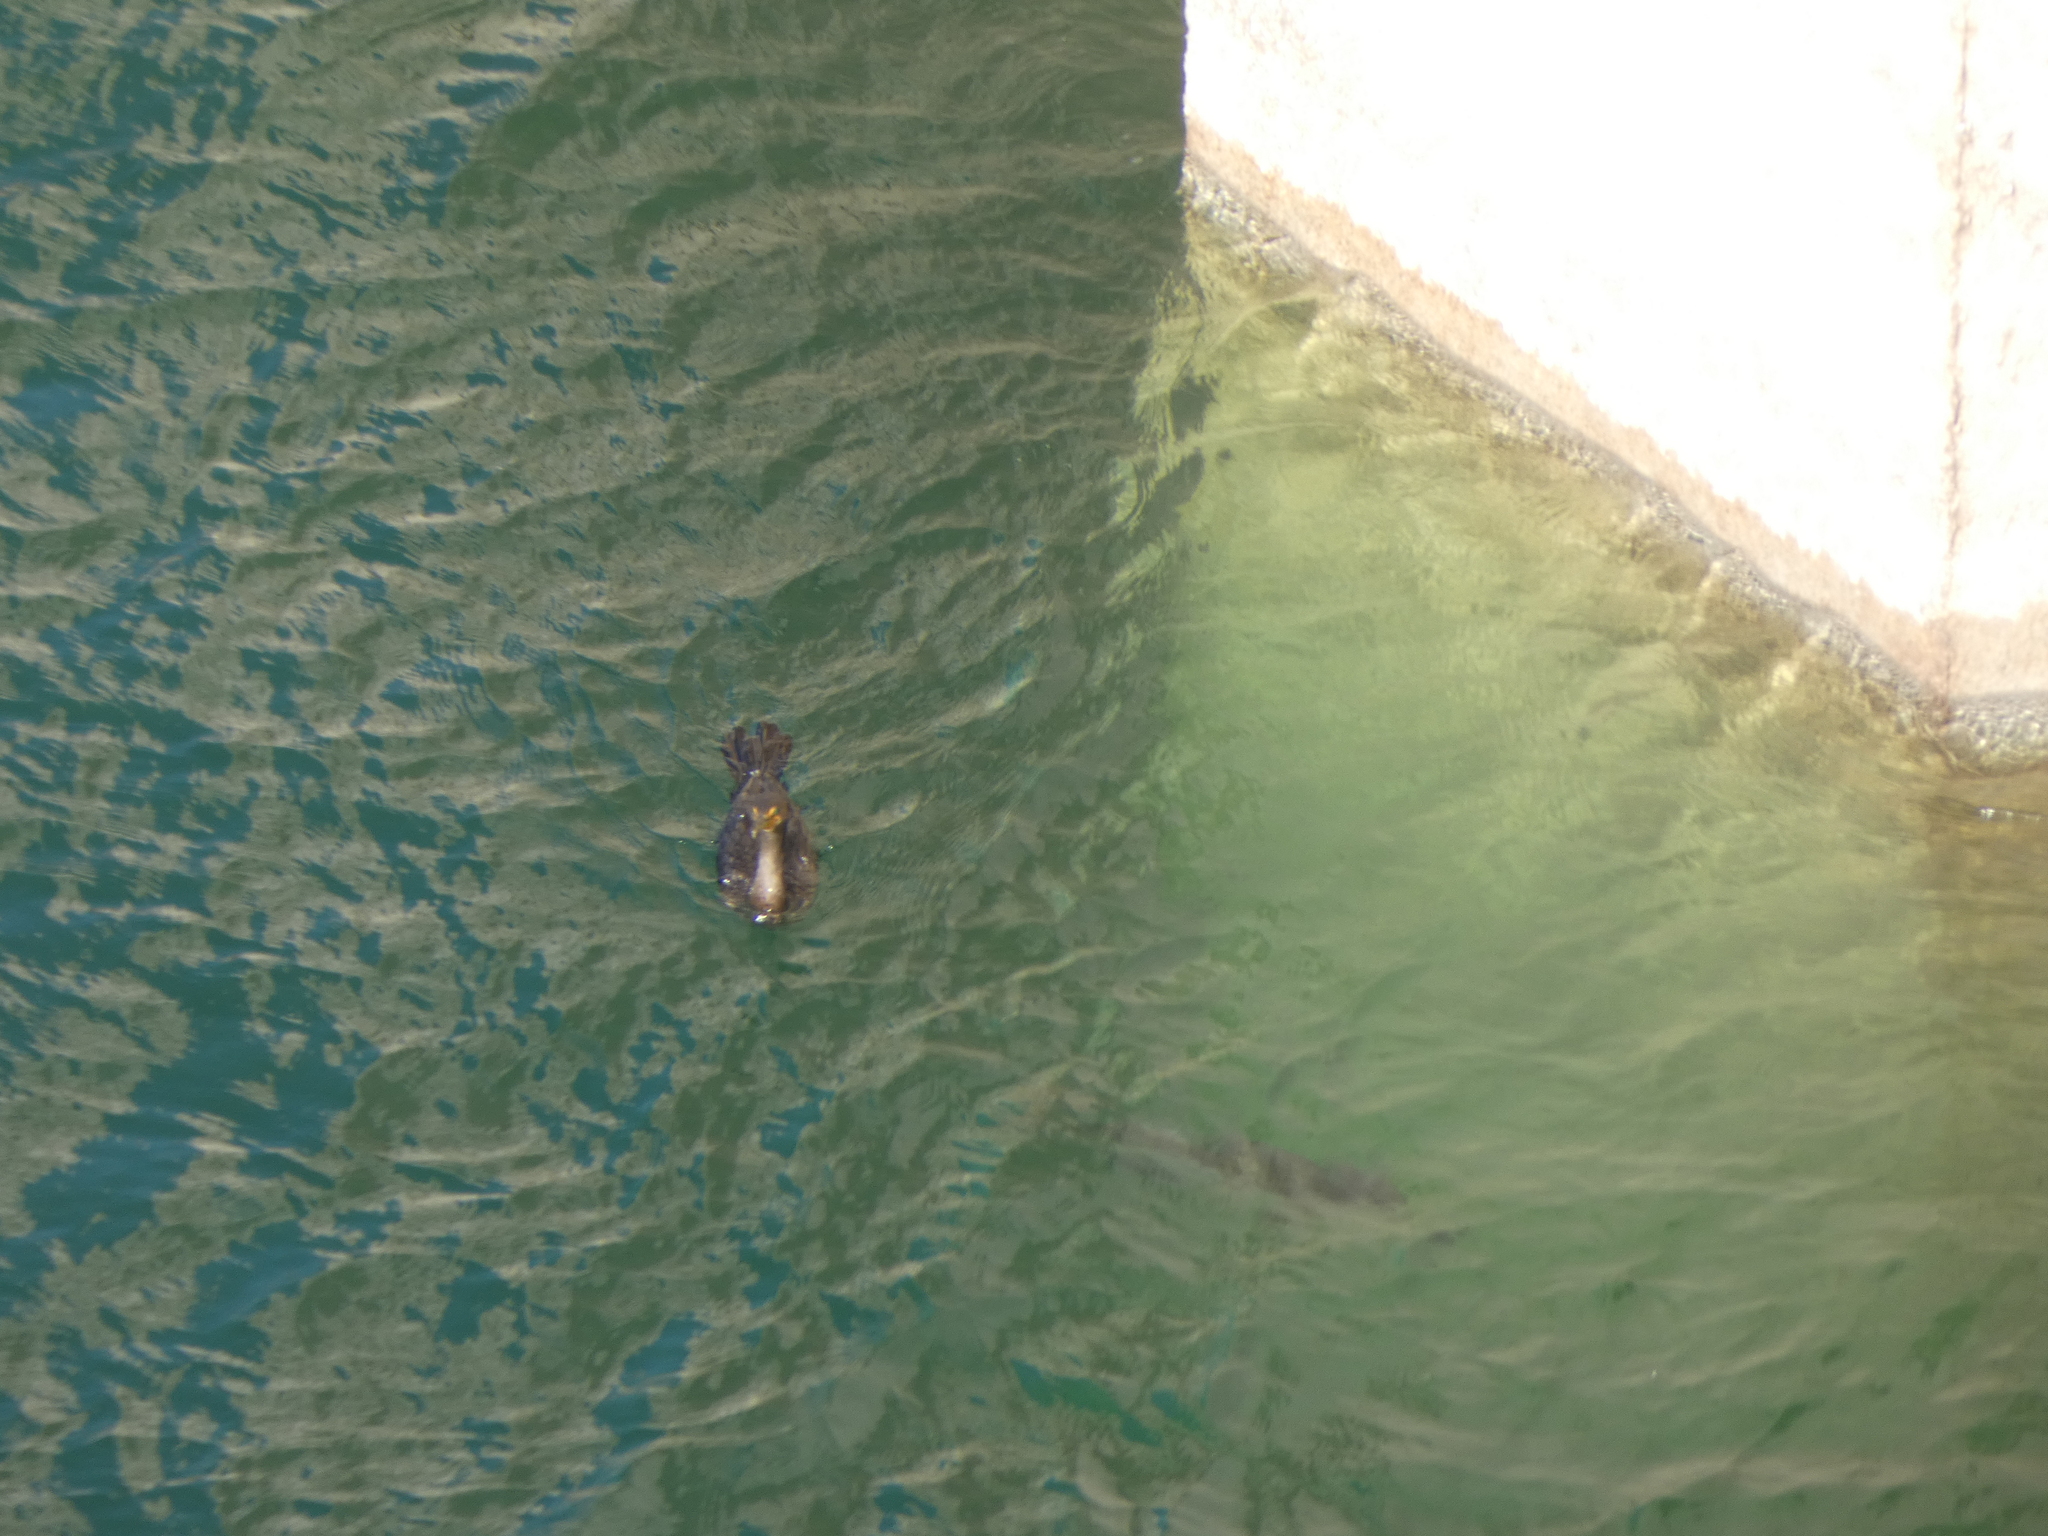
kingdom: Animalia
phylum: Chordata
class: Aves
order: Suliformes
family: Phalacrocoracidae
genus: Phalacrocorax
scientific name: Phalacrocorax auritus
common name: Double-crested cormorant
